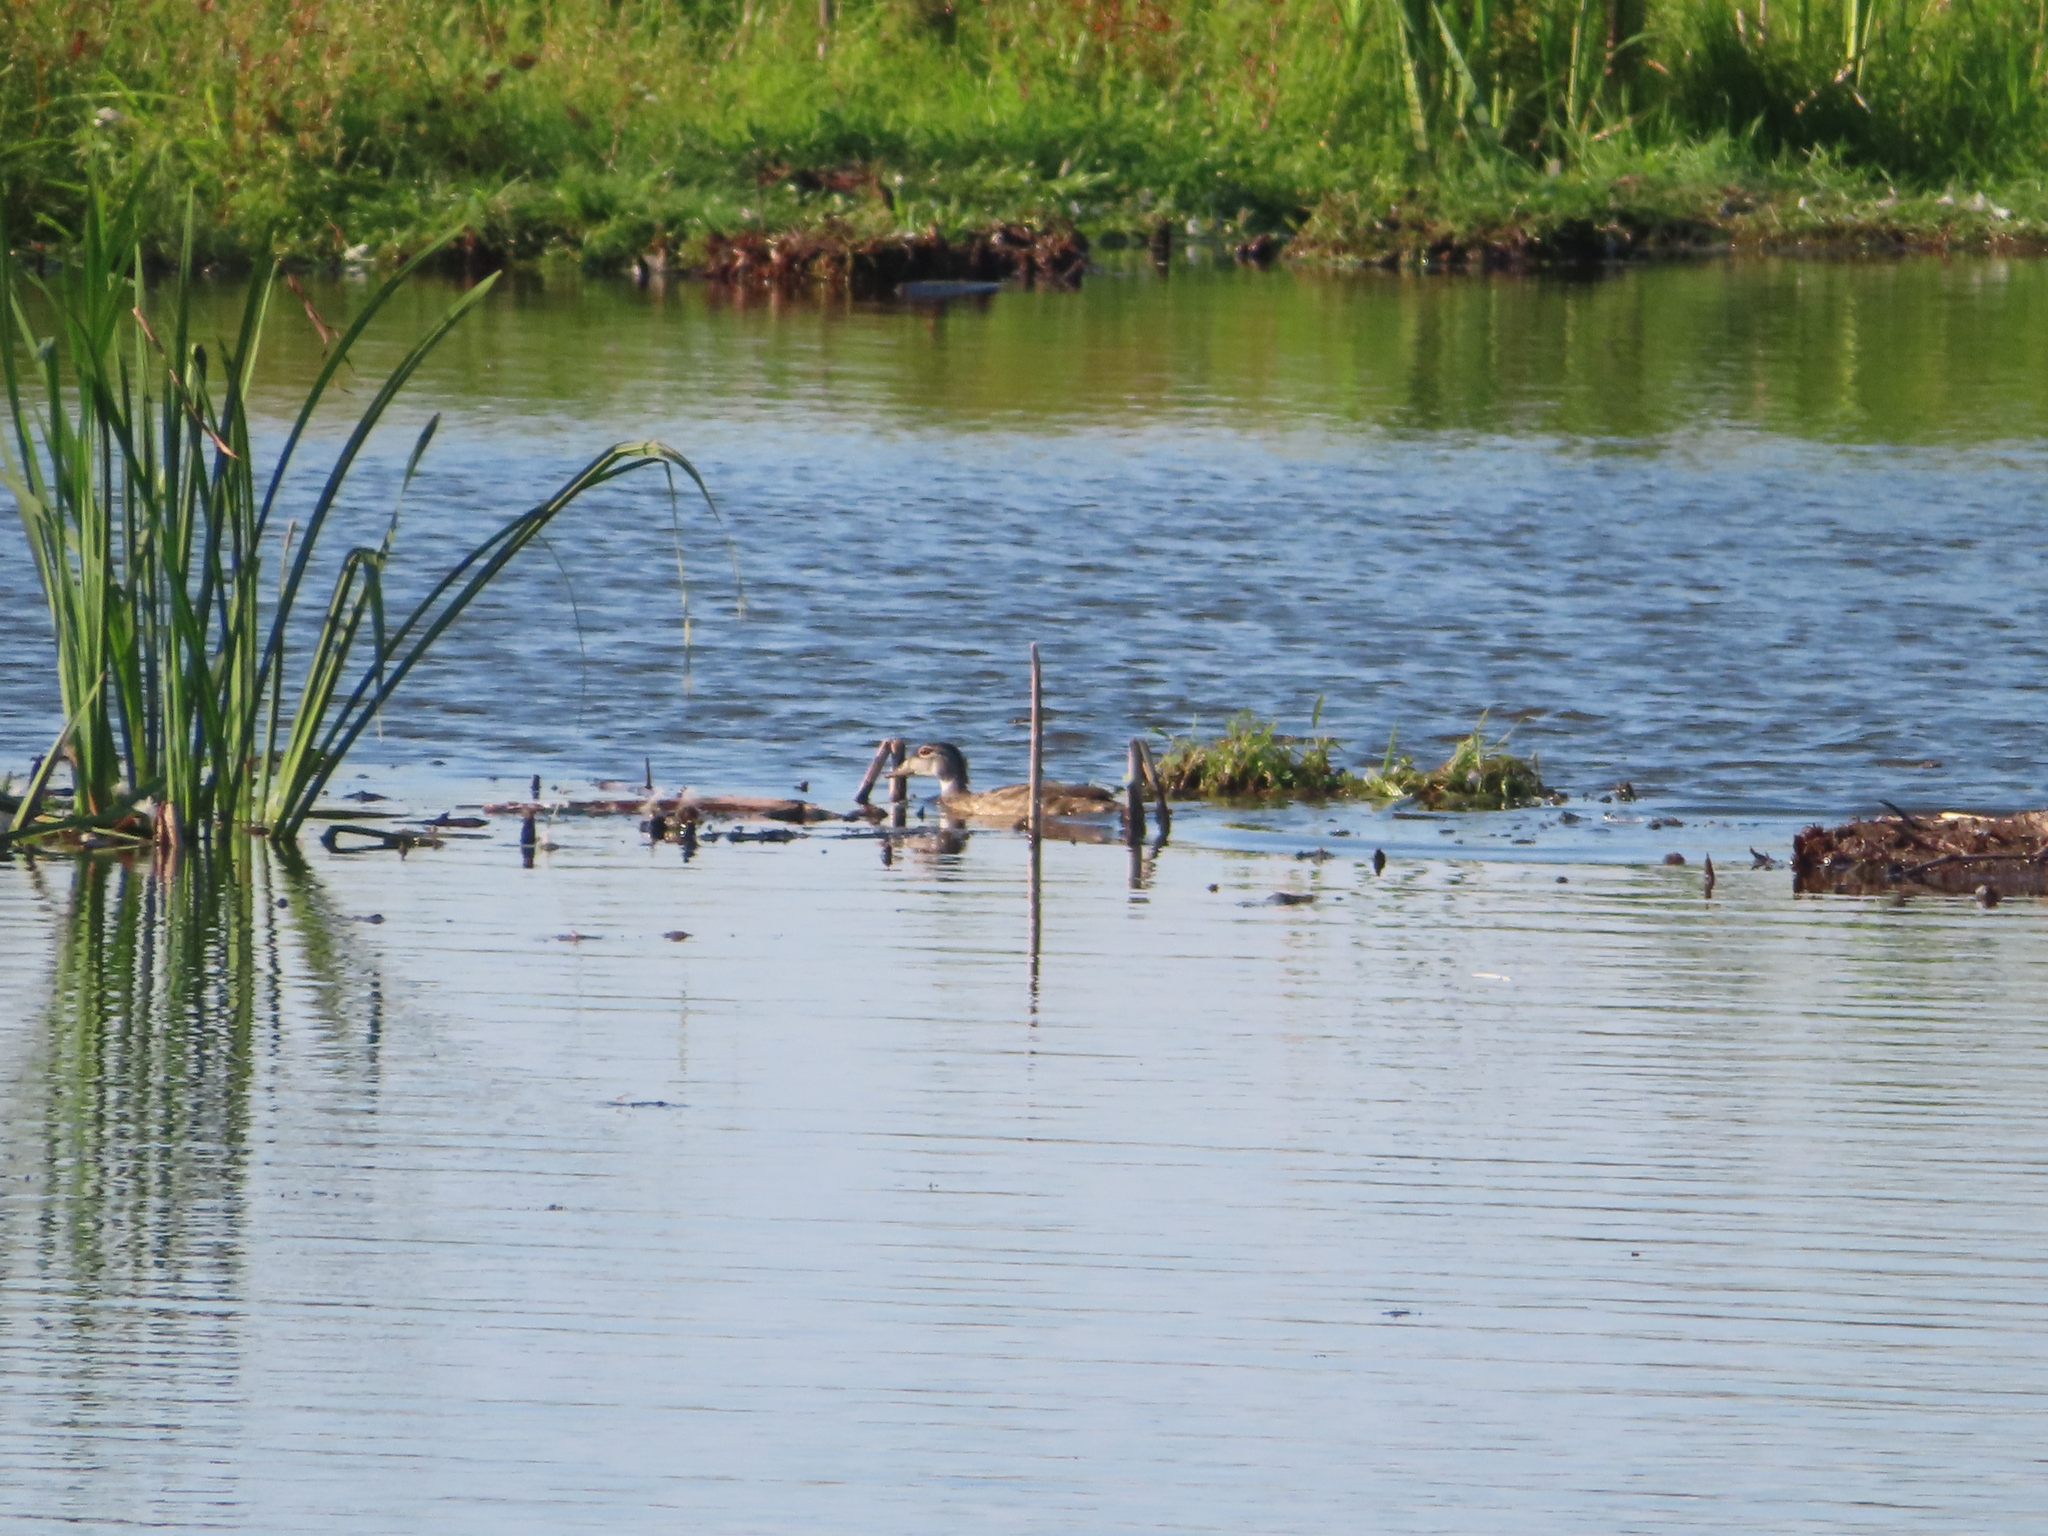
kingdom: Animalia
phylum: Chordata
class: Aves
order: Anseriformes
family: Anatidae
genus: Aix
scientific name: Aix sponsa
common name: Wood duck
